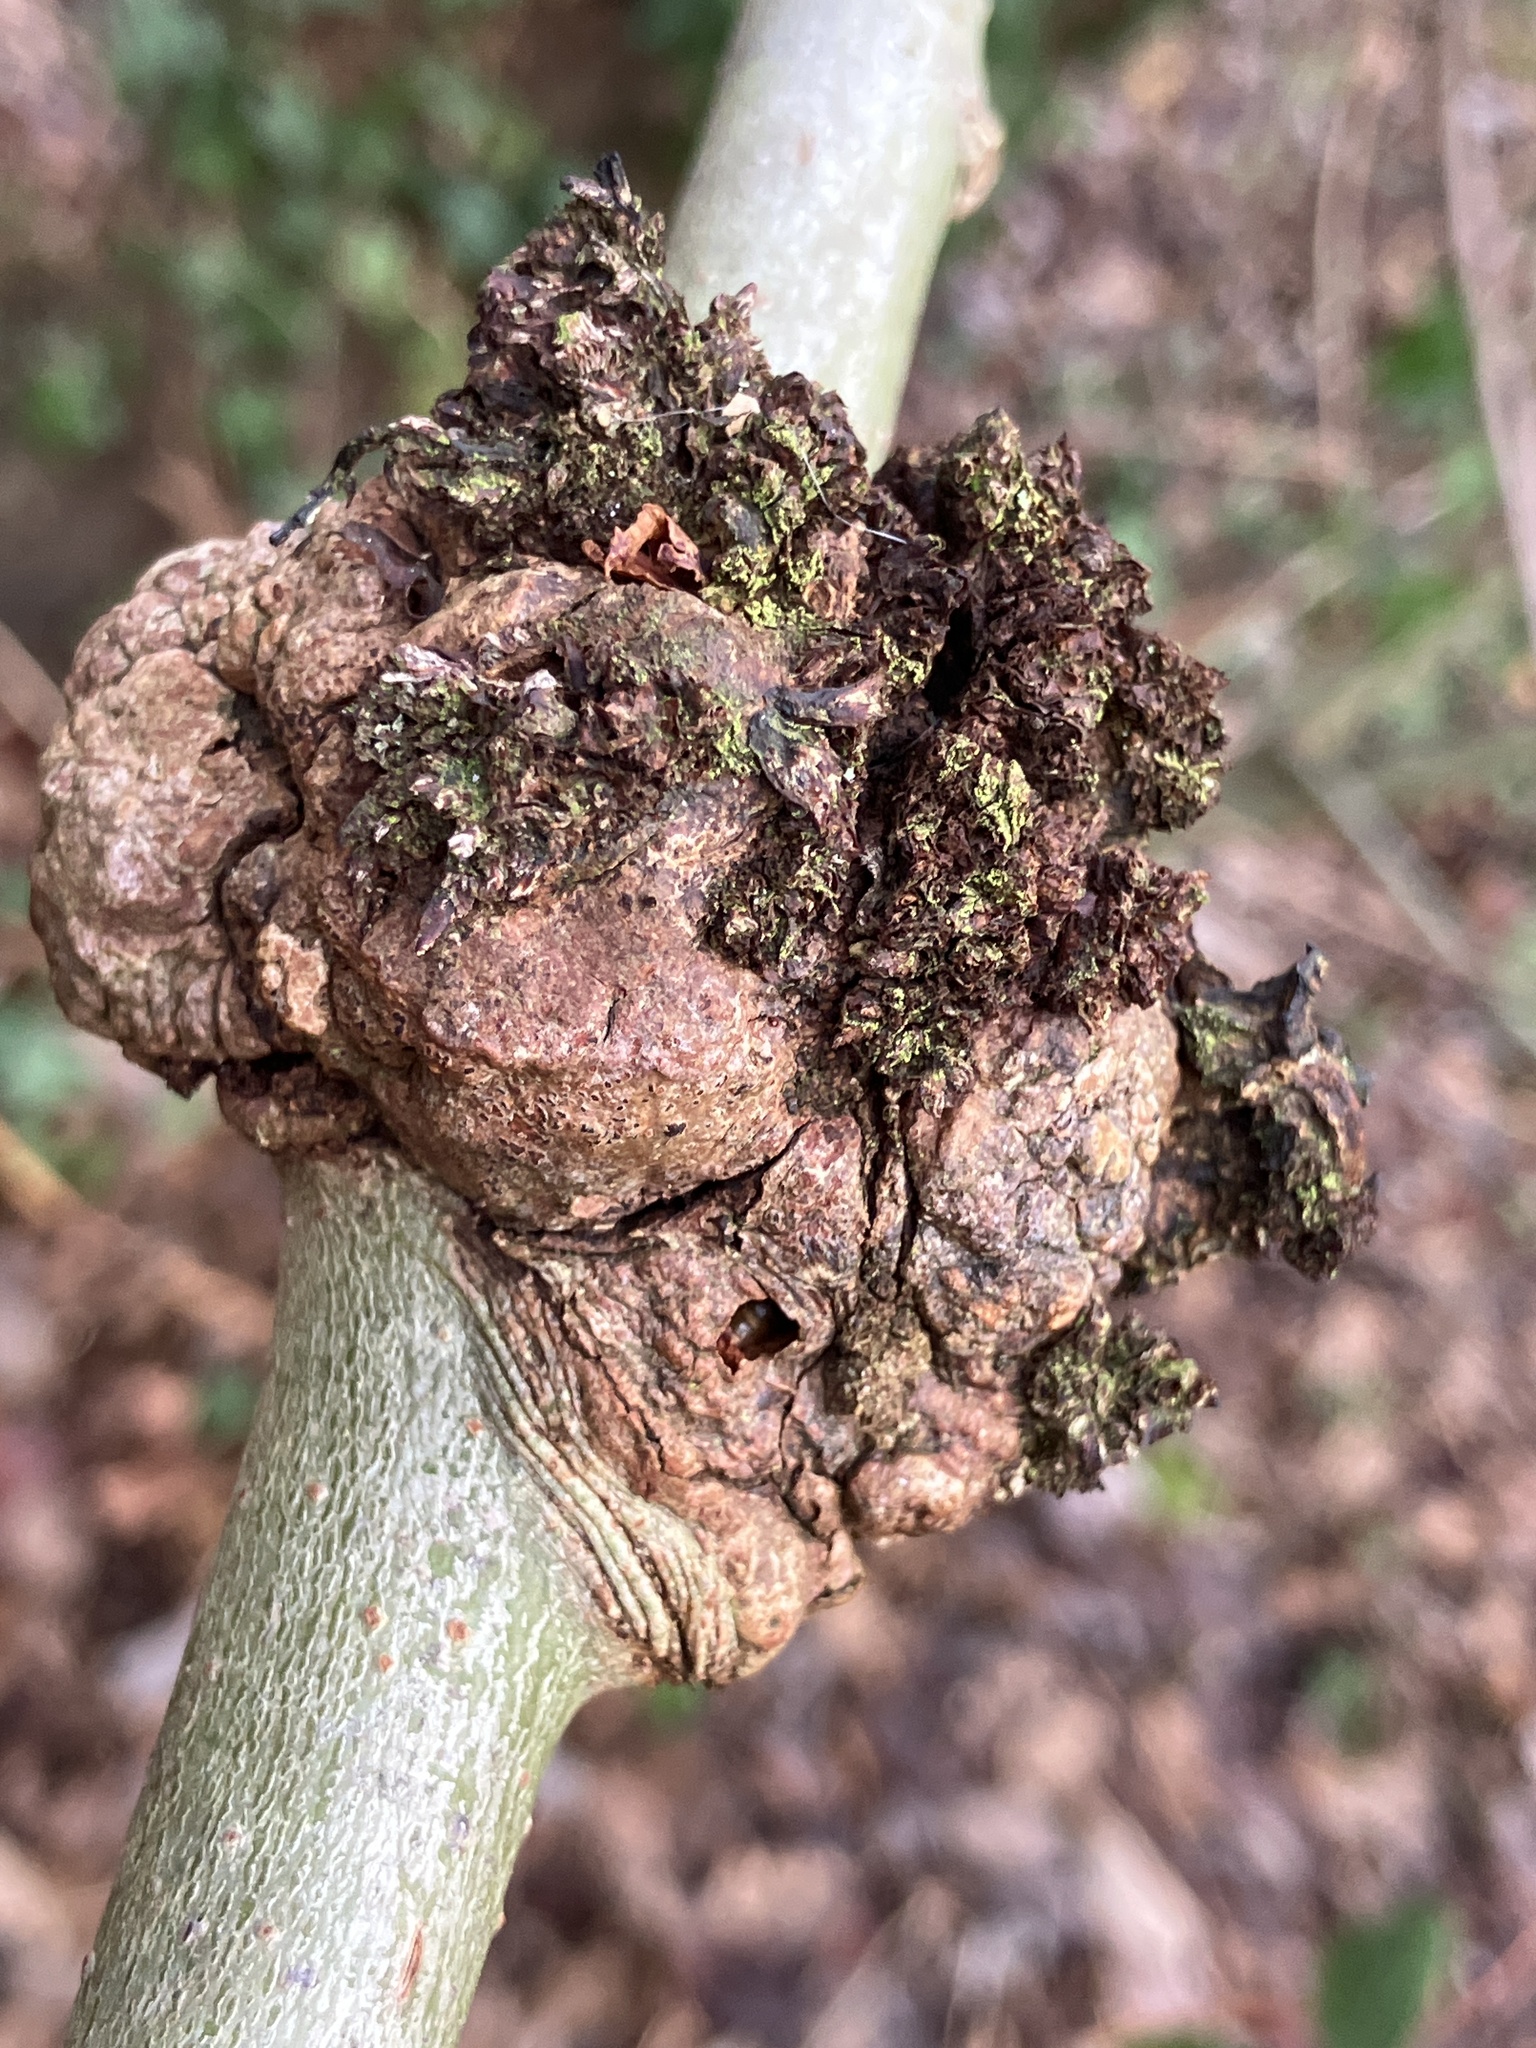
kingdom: Bacteria
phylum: Proteobacteria
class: Alphaproteobacteria
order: Rhizobiales
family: Rhizobiaceae
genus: Rhizobium
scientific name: Rhizobium Agrobacterium radiobacter
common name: Bacterial crown gall
